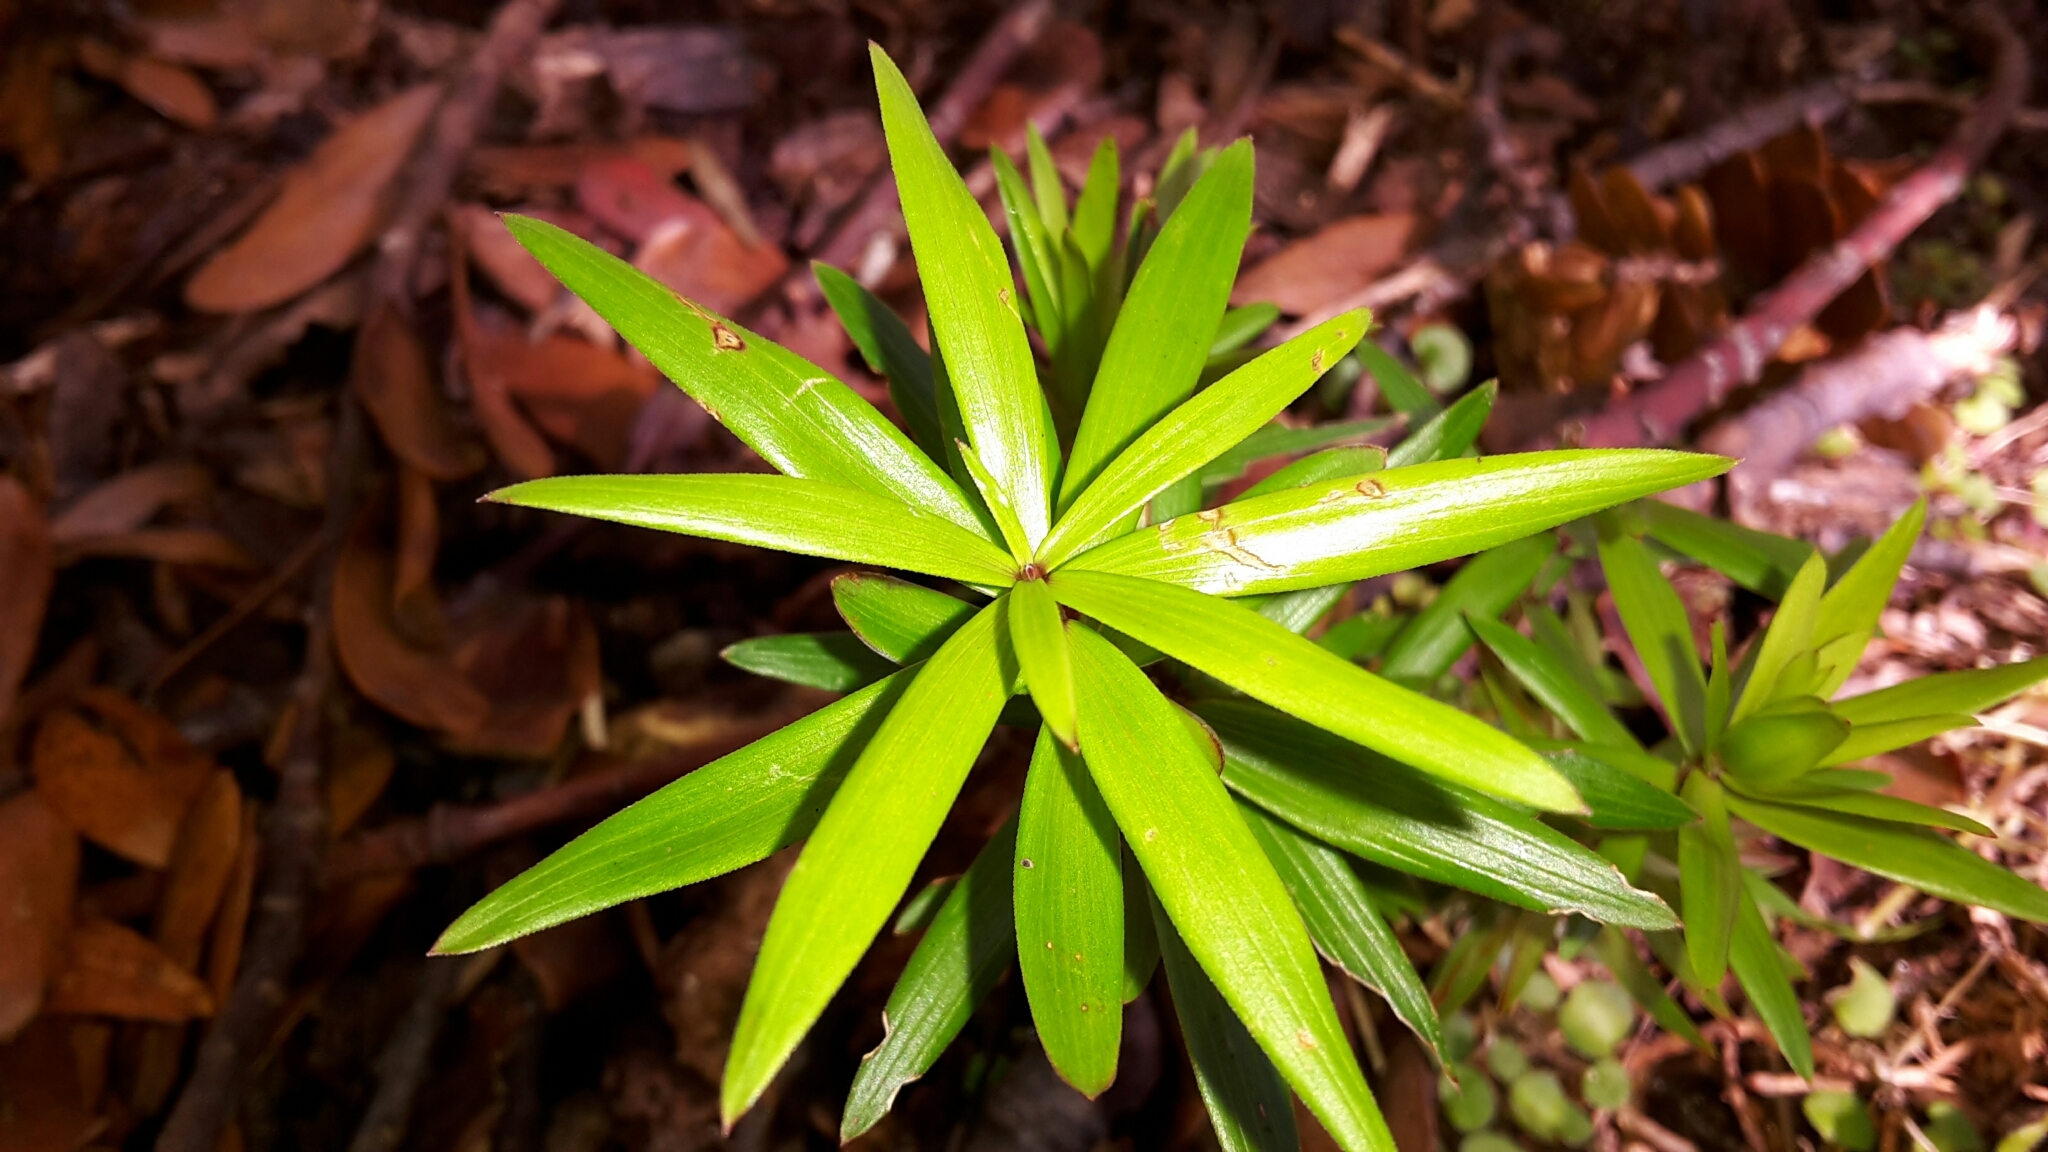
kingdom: Plantae
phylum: Tracheophyta
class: Magnoliopsida
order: Ericales
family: Ericaceae
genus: Leucopogon
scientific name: Leucopogon fasciculatus
